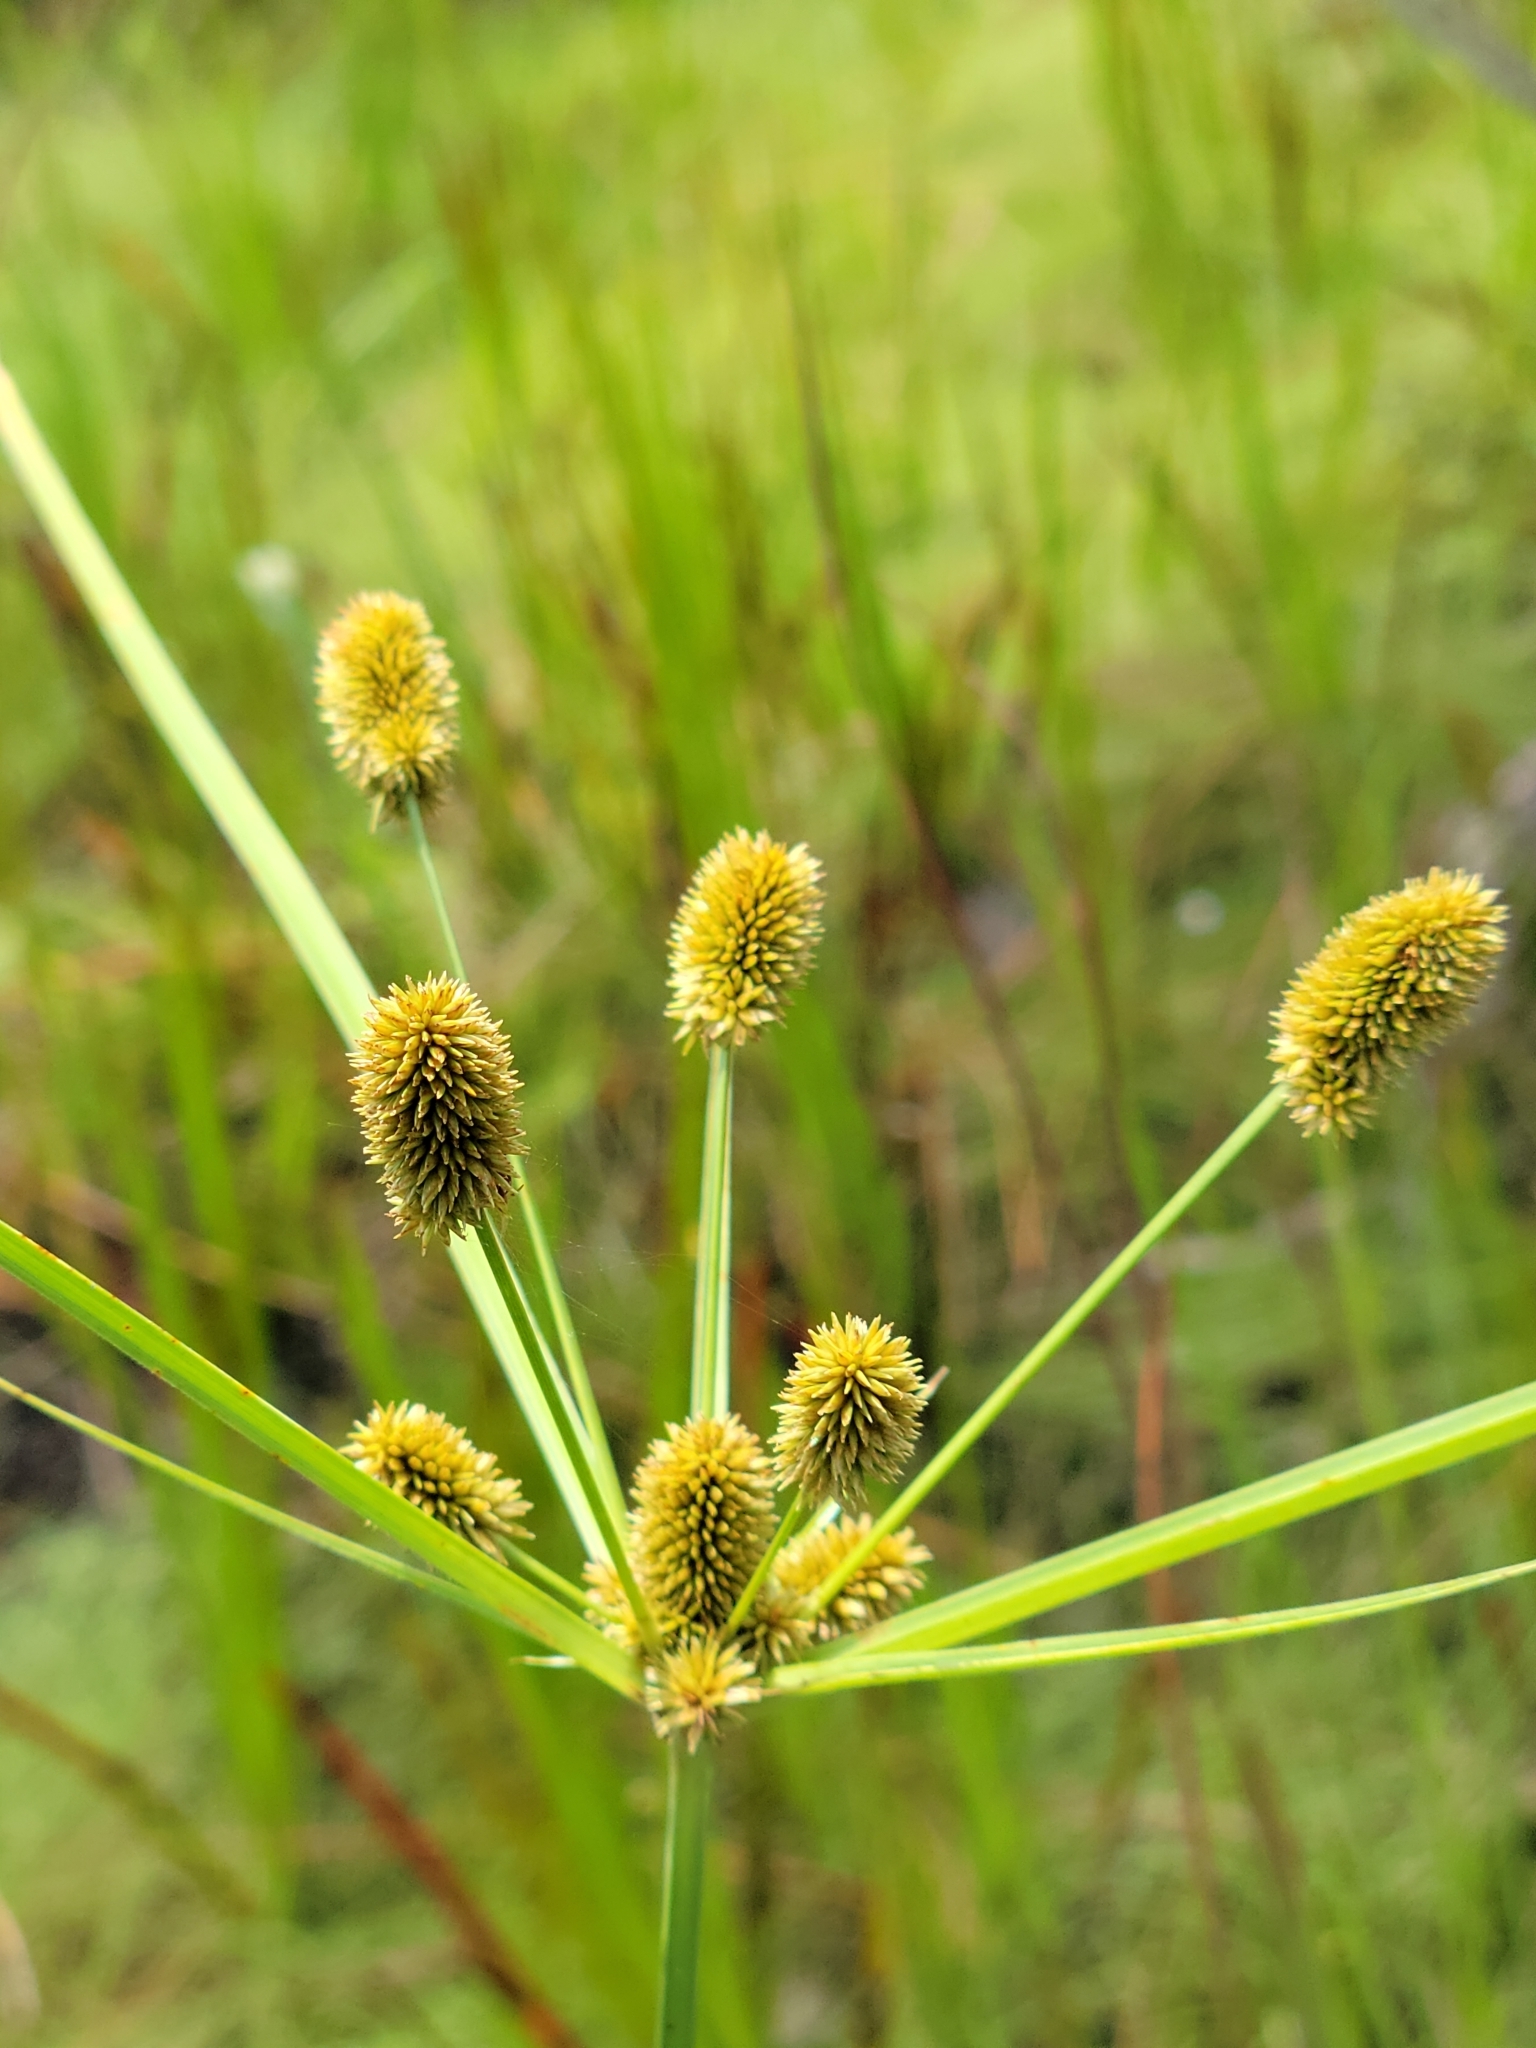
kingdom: Plantae
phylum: Tracheophyta
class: Liliopsida
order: Poales
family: Cyperaceae
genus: Cyperus
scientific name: Cyperus ovatus
